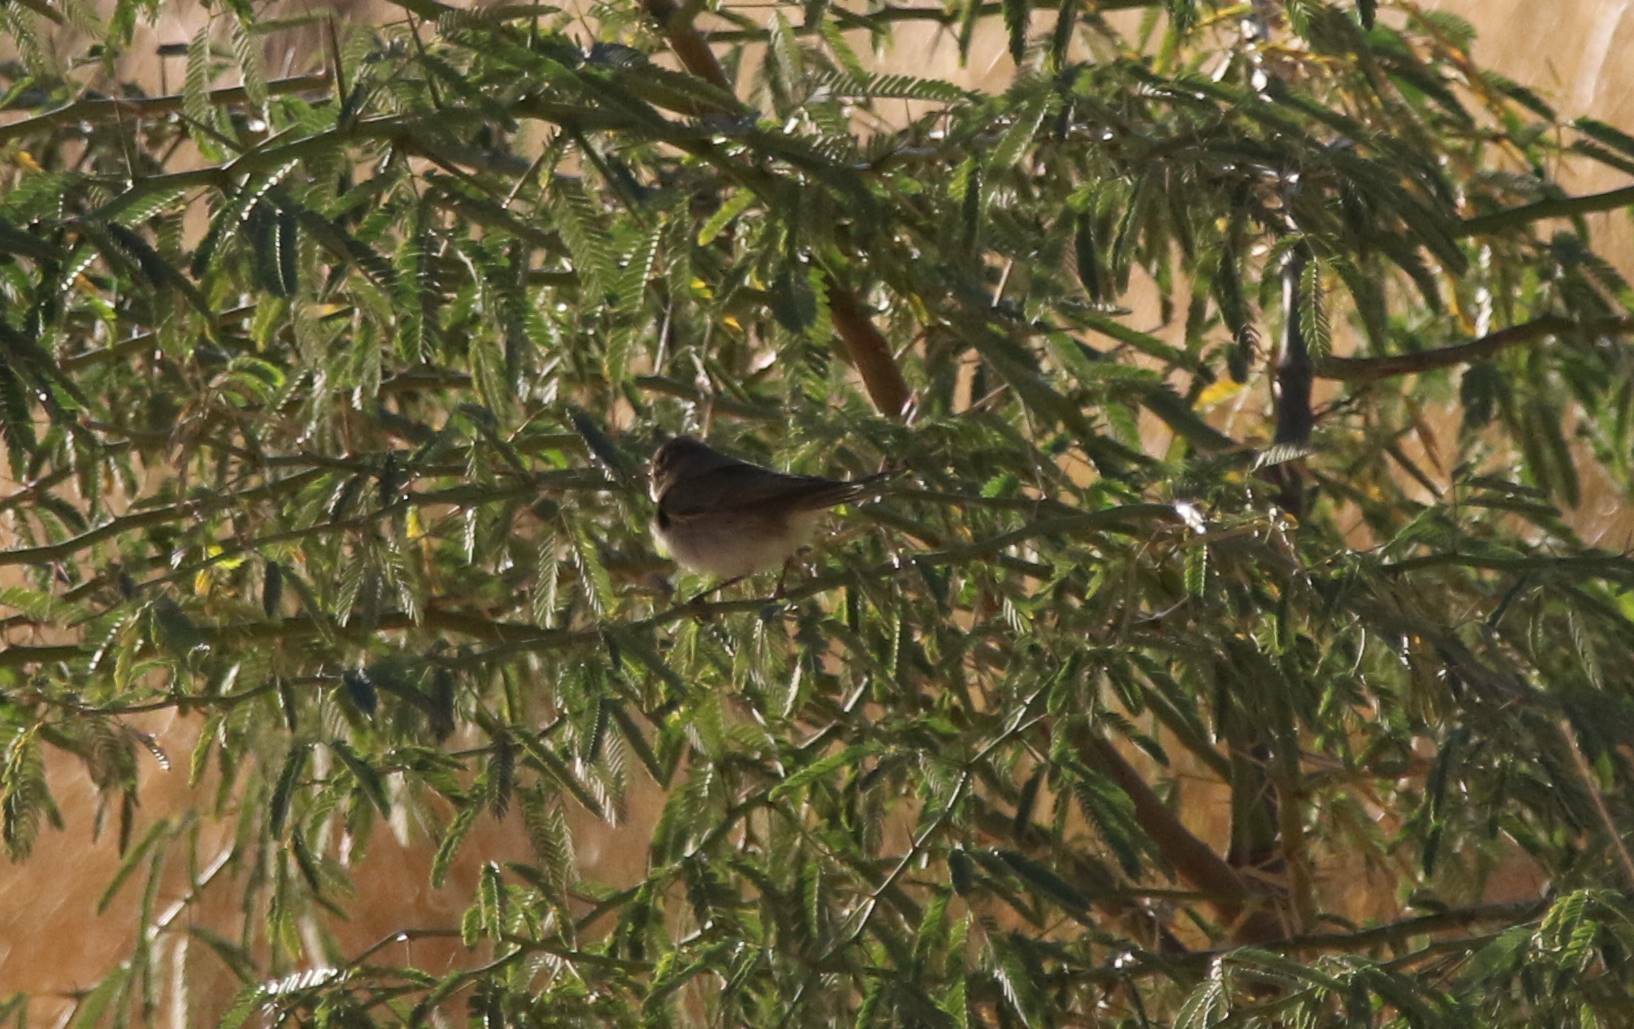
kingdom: Animalia
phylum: Chordata
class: Aves
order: Passeriformes
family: Phylloscopidae
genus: Phylloscopus
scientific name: Phylloscopus collybita
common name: Common chiffchaff
